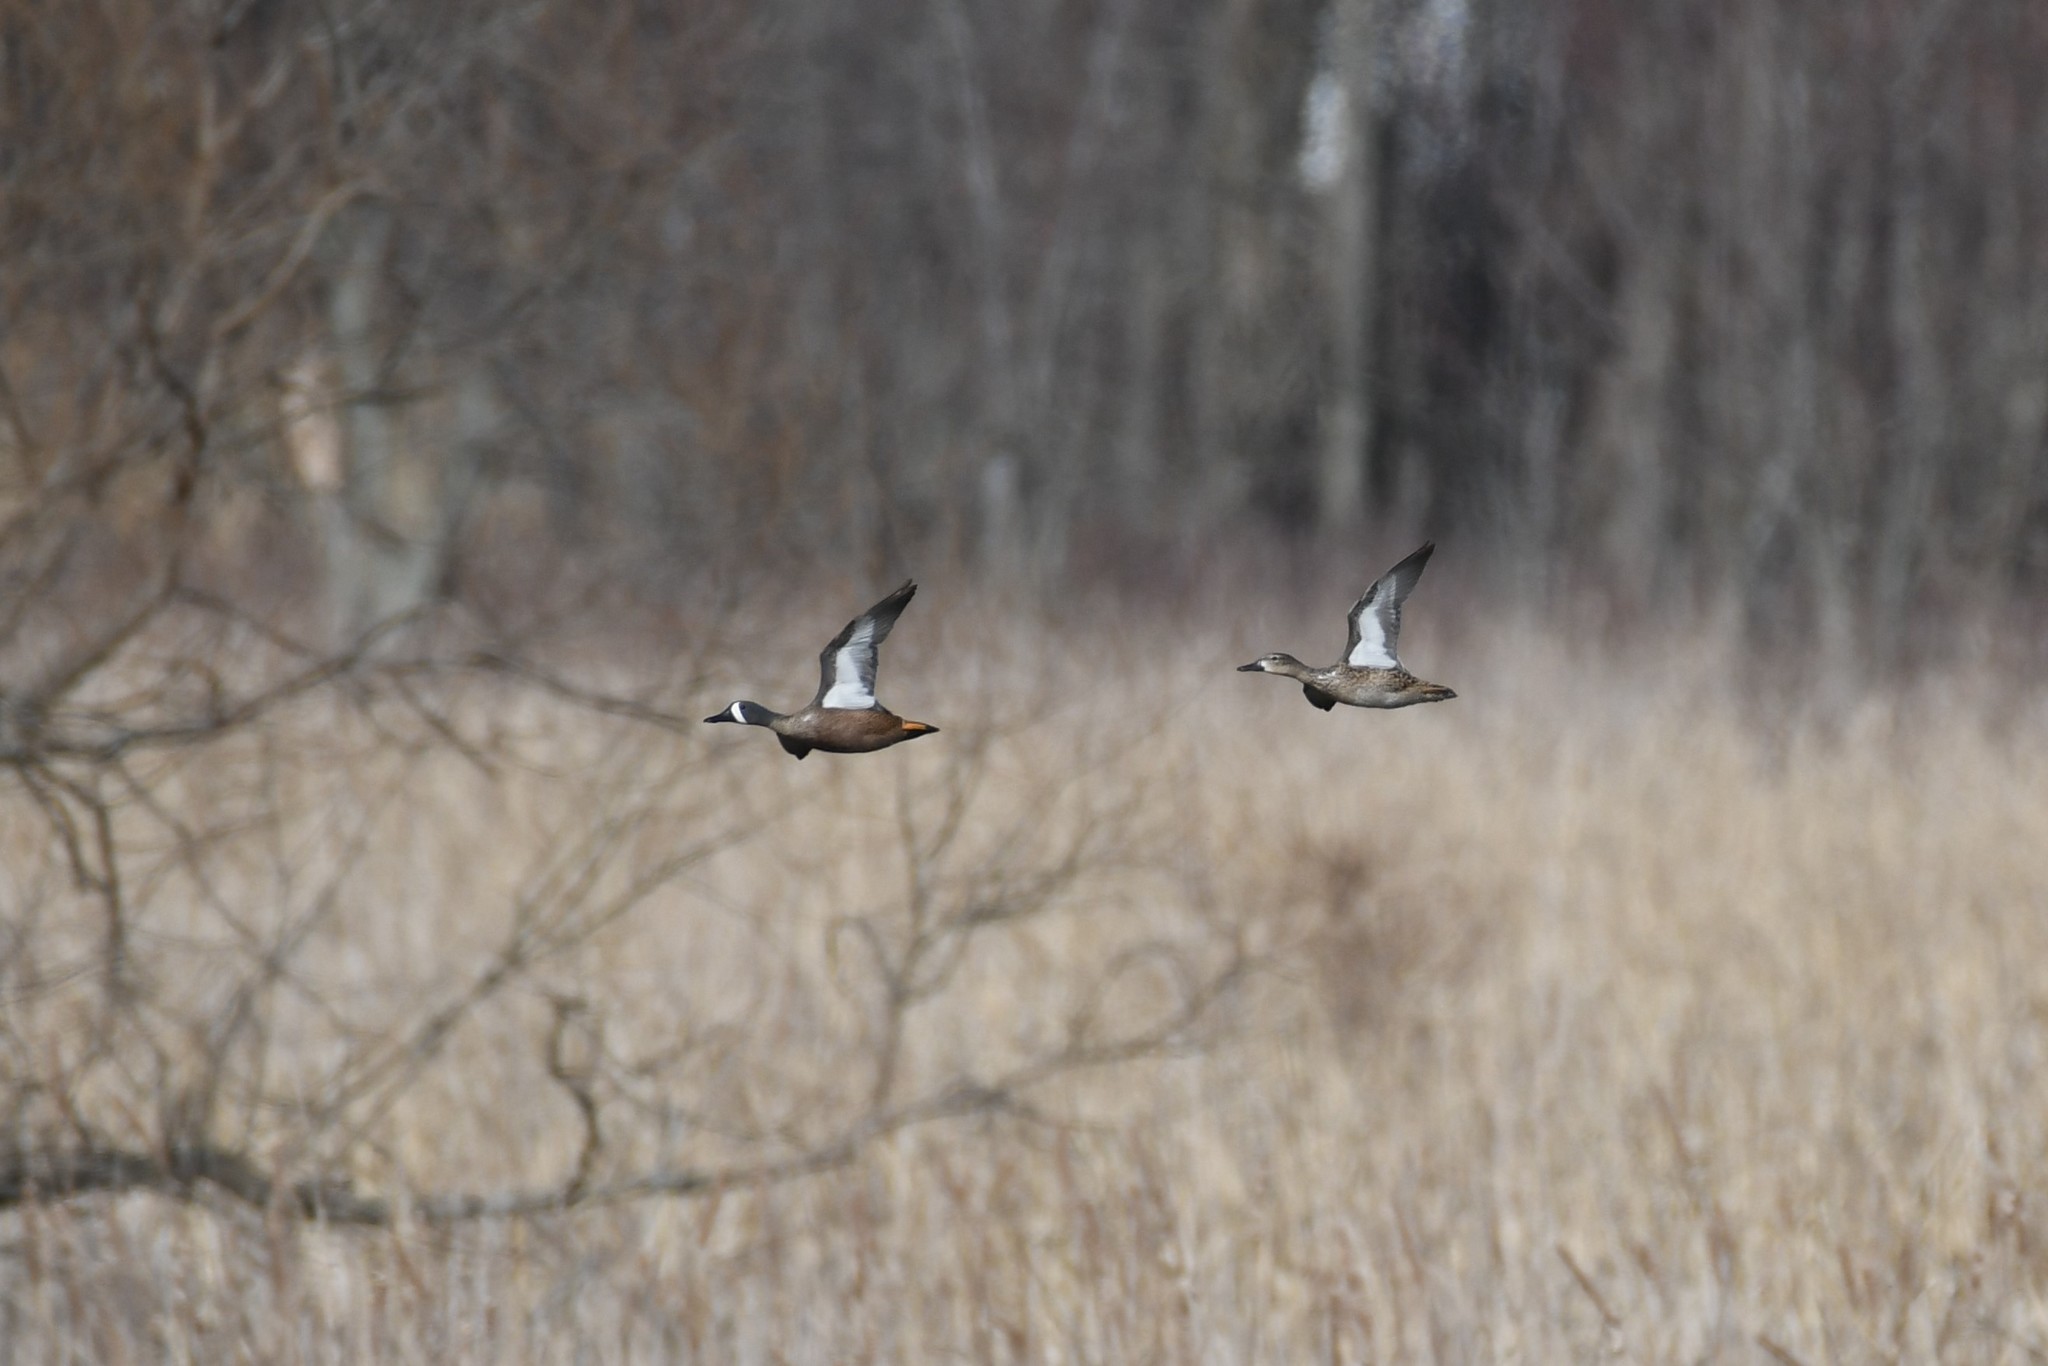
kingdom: Animalia
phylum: Chordata
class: Aves
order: Anseriformes
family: Anatidae
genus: Spatula
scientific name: Spatula discors
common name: Blue-winged teal
